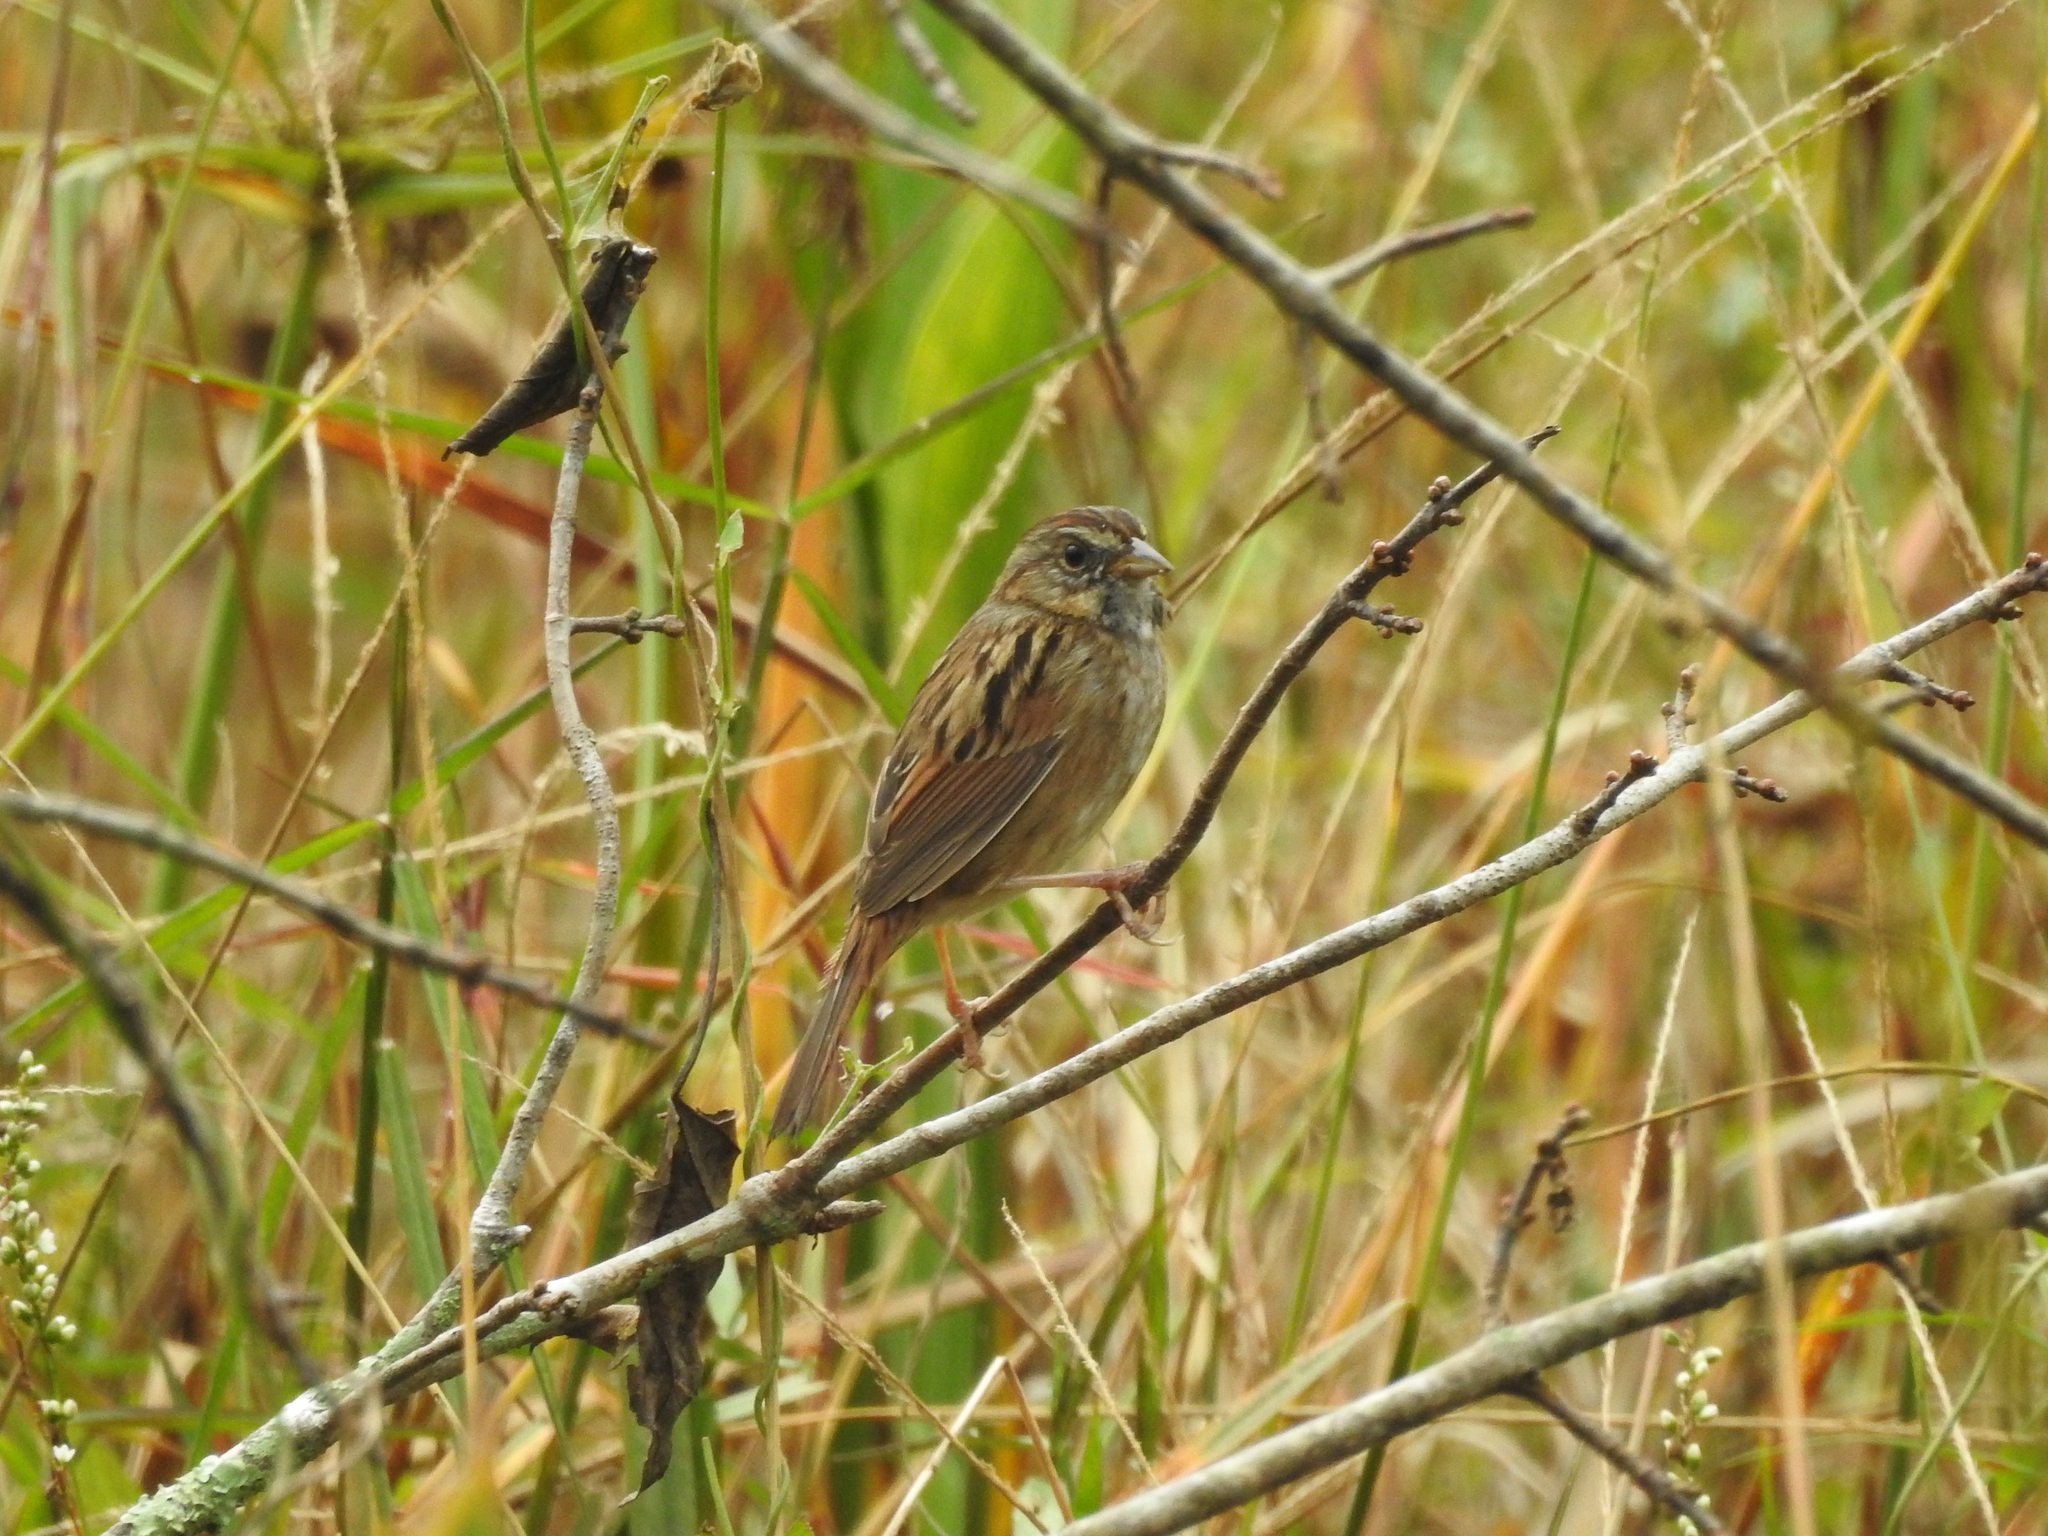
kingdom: Animalia
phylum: Chordata
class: Aves
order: Passeriformes
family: Passerellidae
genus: Melospiza
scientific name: Melospiza georgiana
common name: Swamp sparrow
